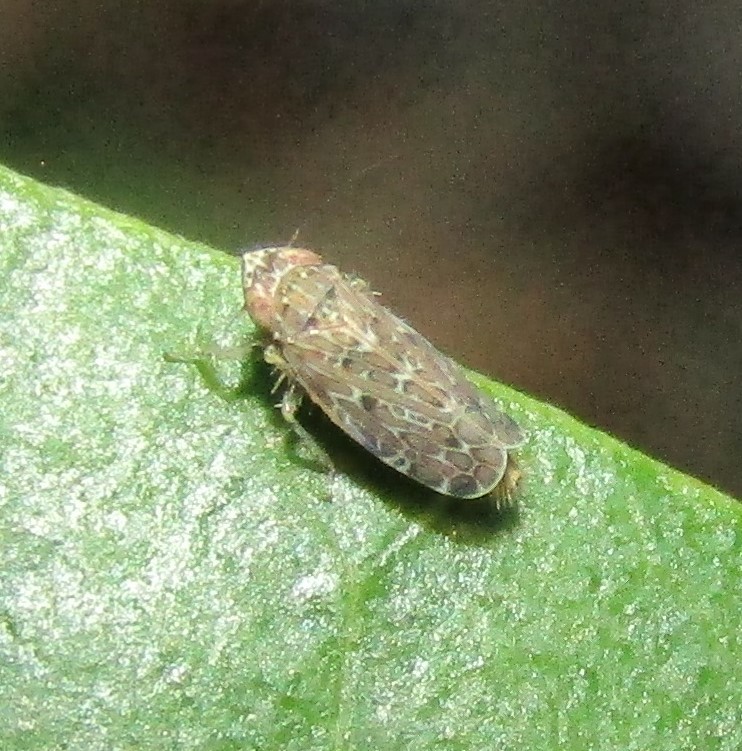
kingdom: Animalia
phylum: Arthropoda
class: Insecta
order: Hemiptera
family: Cicadellidae
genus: Polyamia
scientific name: Polyamia weedi
